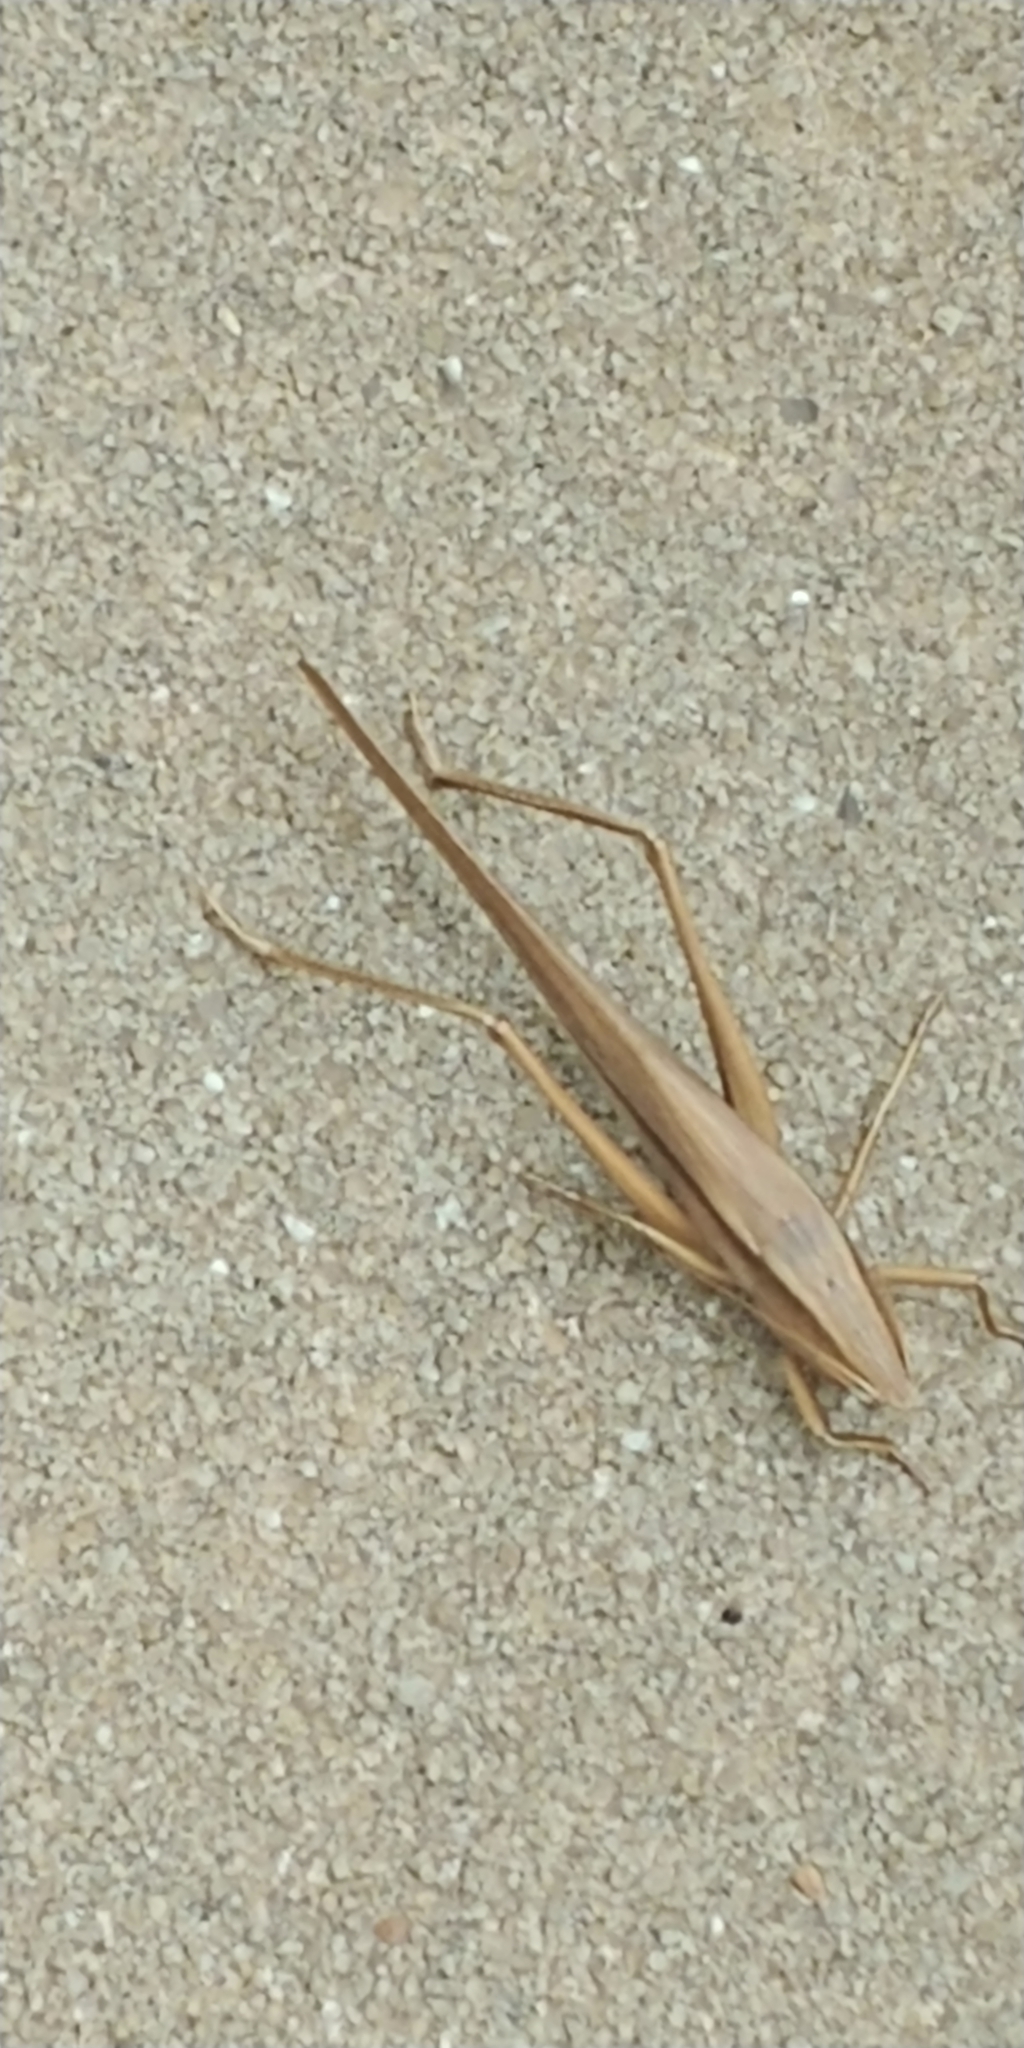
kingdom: Animalia
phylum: Arthropoda
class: Insecta
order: Orthoptera
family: Tettigoniidae
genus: Neoconocephalus
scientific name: Neoconocephalus triops
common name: Broad-tipped conehead
